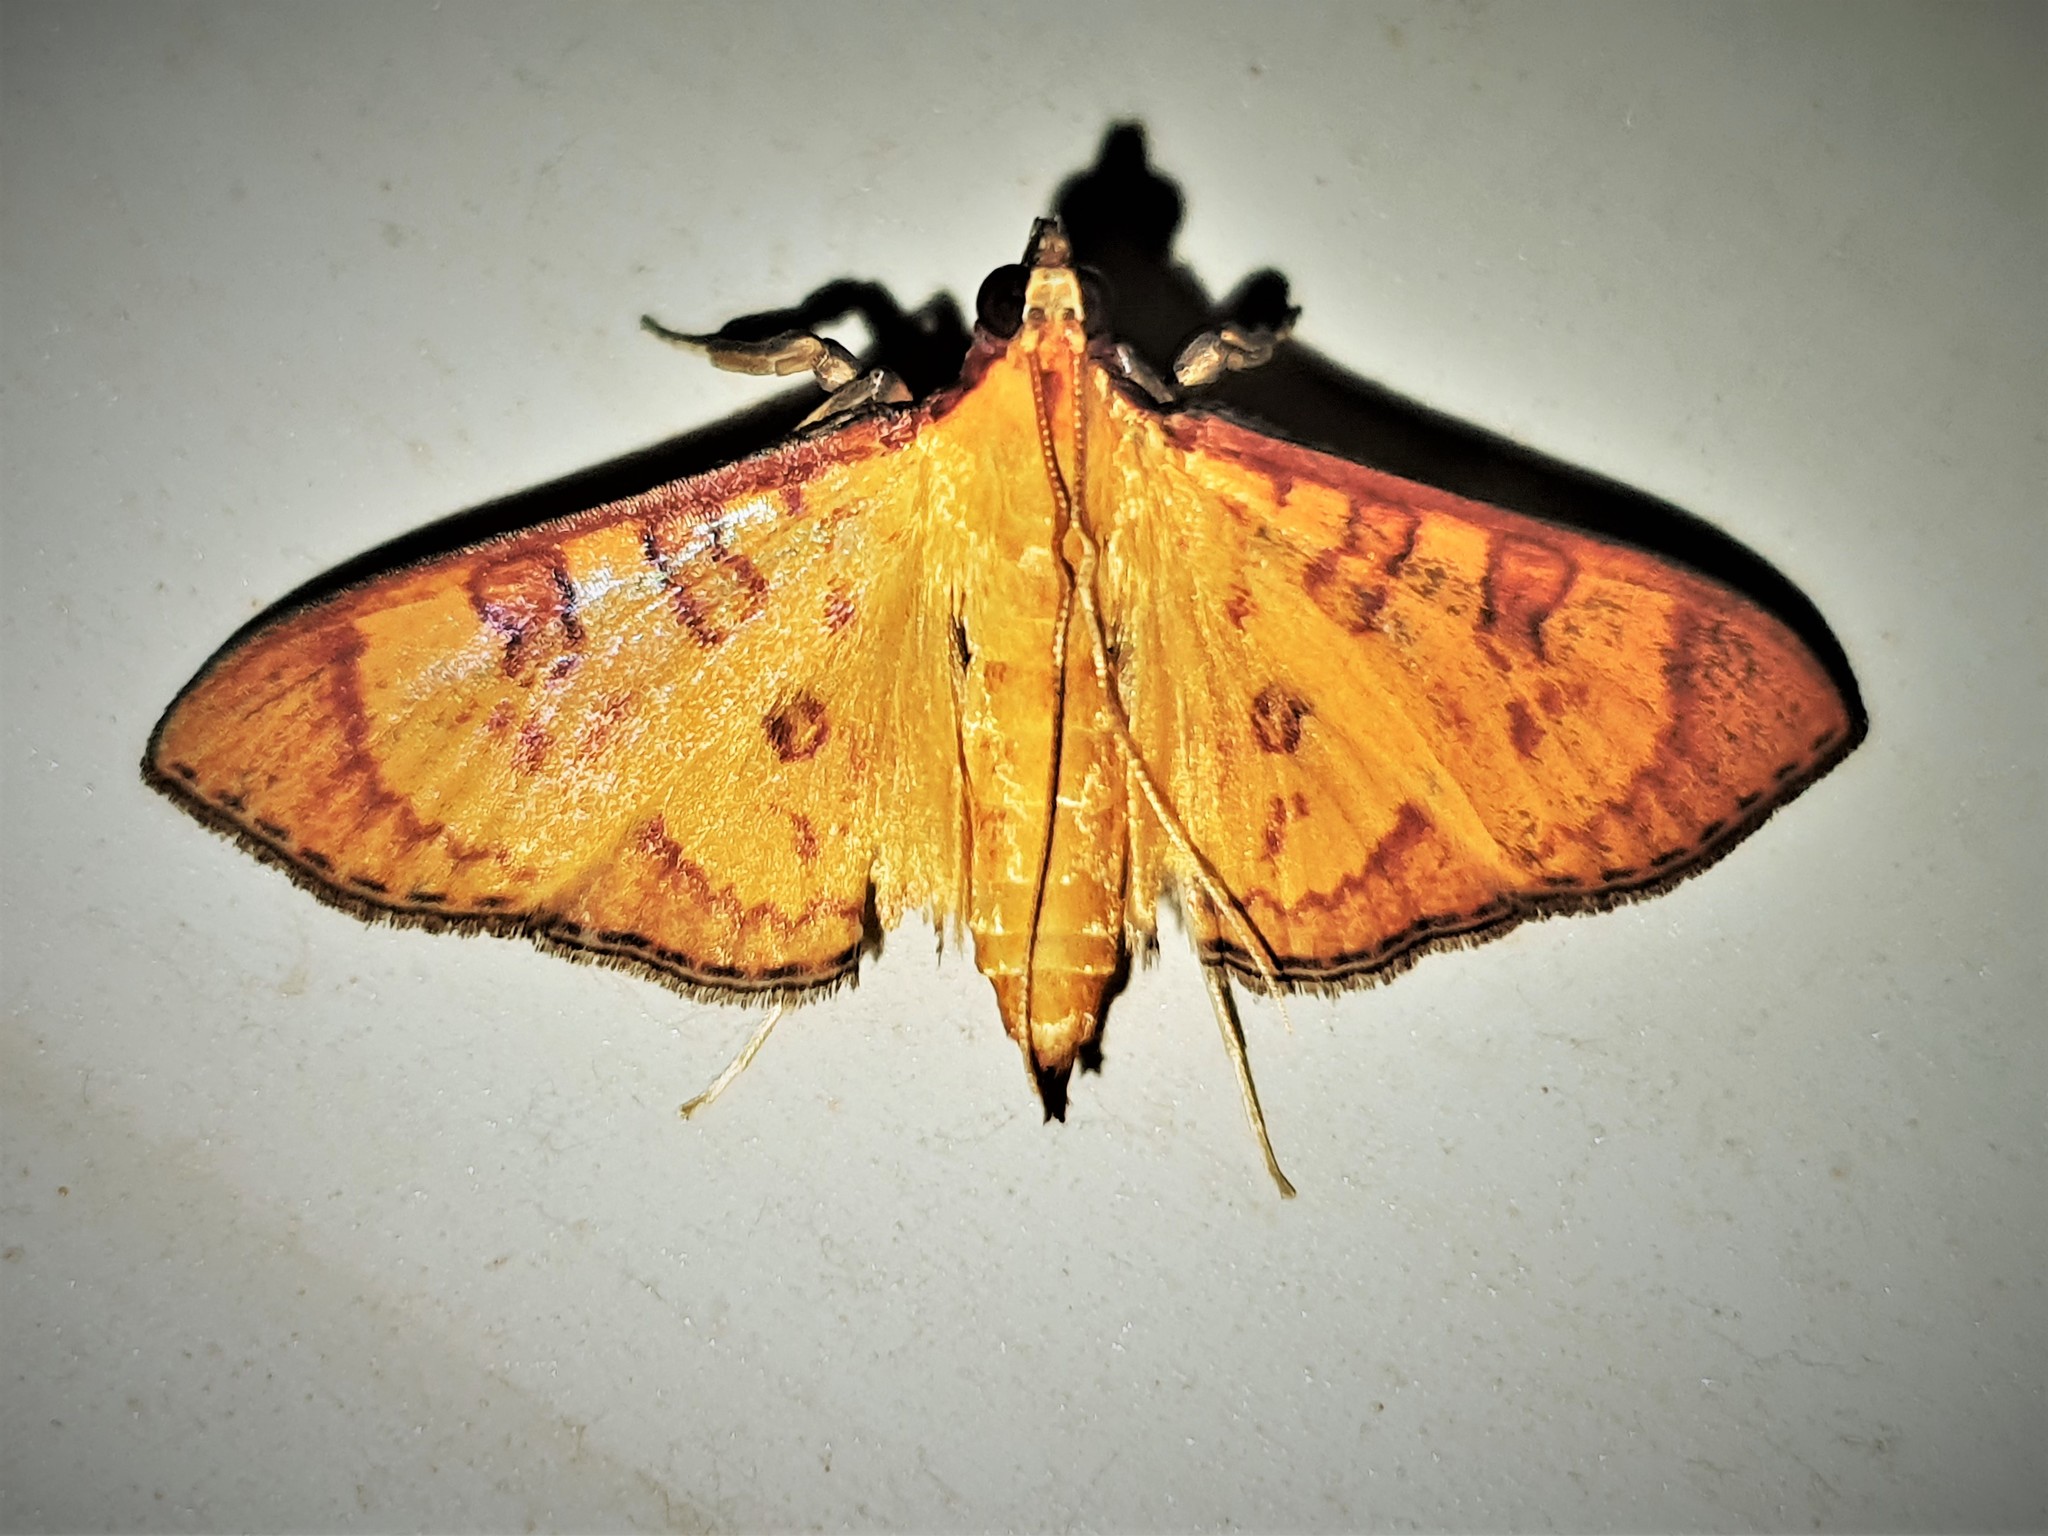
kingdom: Animalia
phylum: Arthropoda
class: Insecta
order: Lepidoptera
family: Crambidae
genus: Trithyris
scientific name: Trithyris
